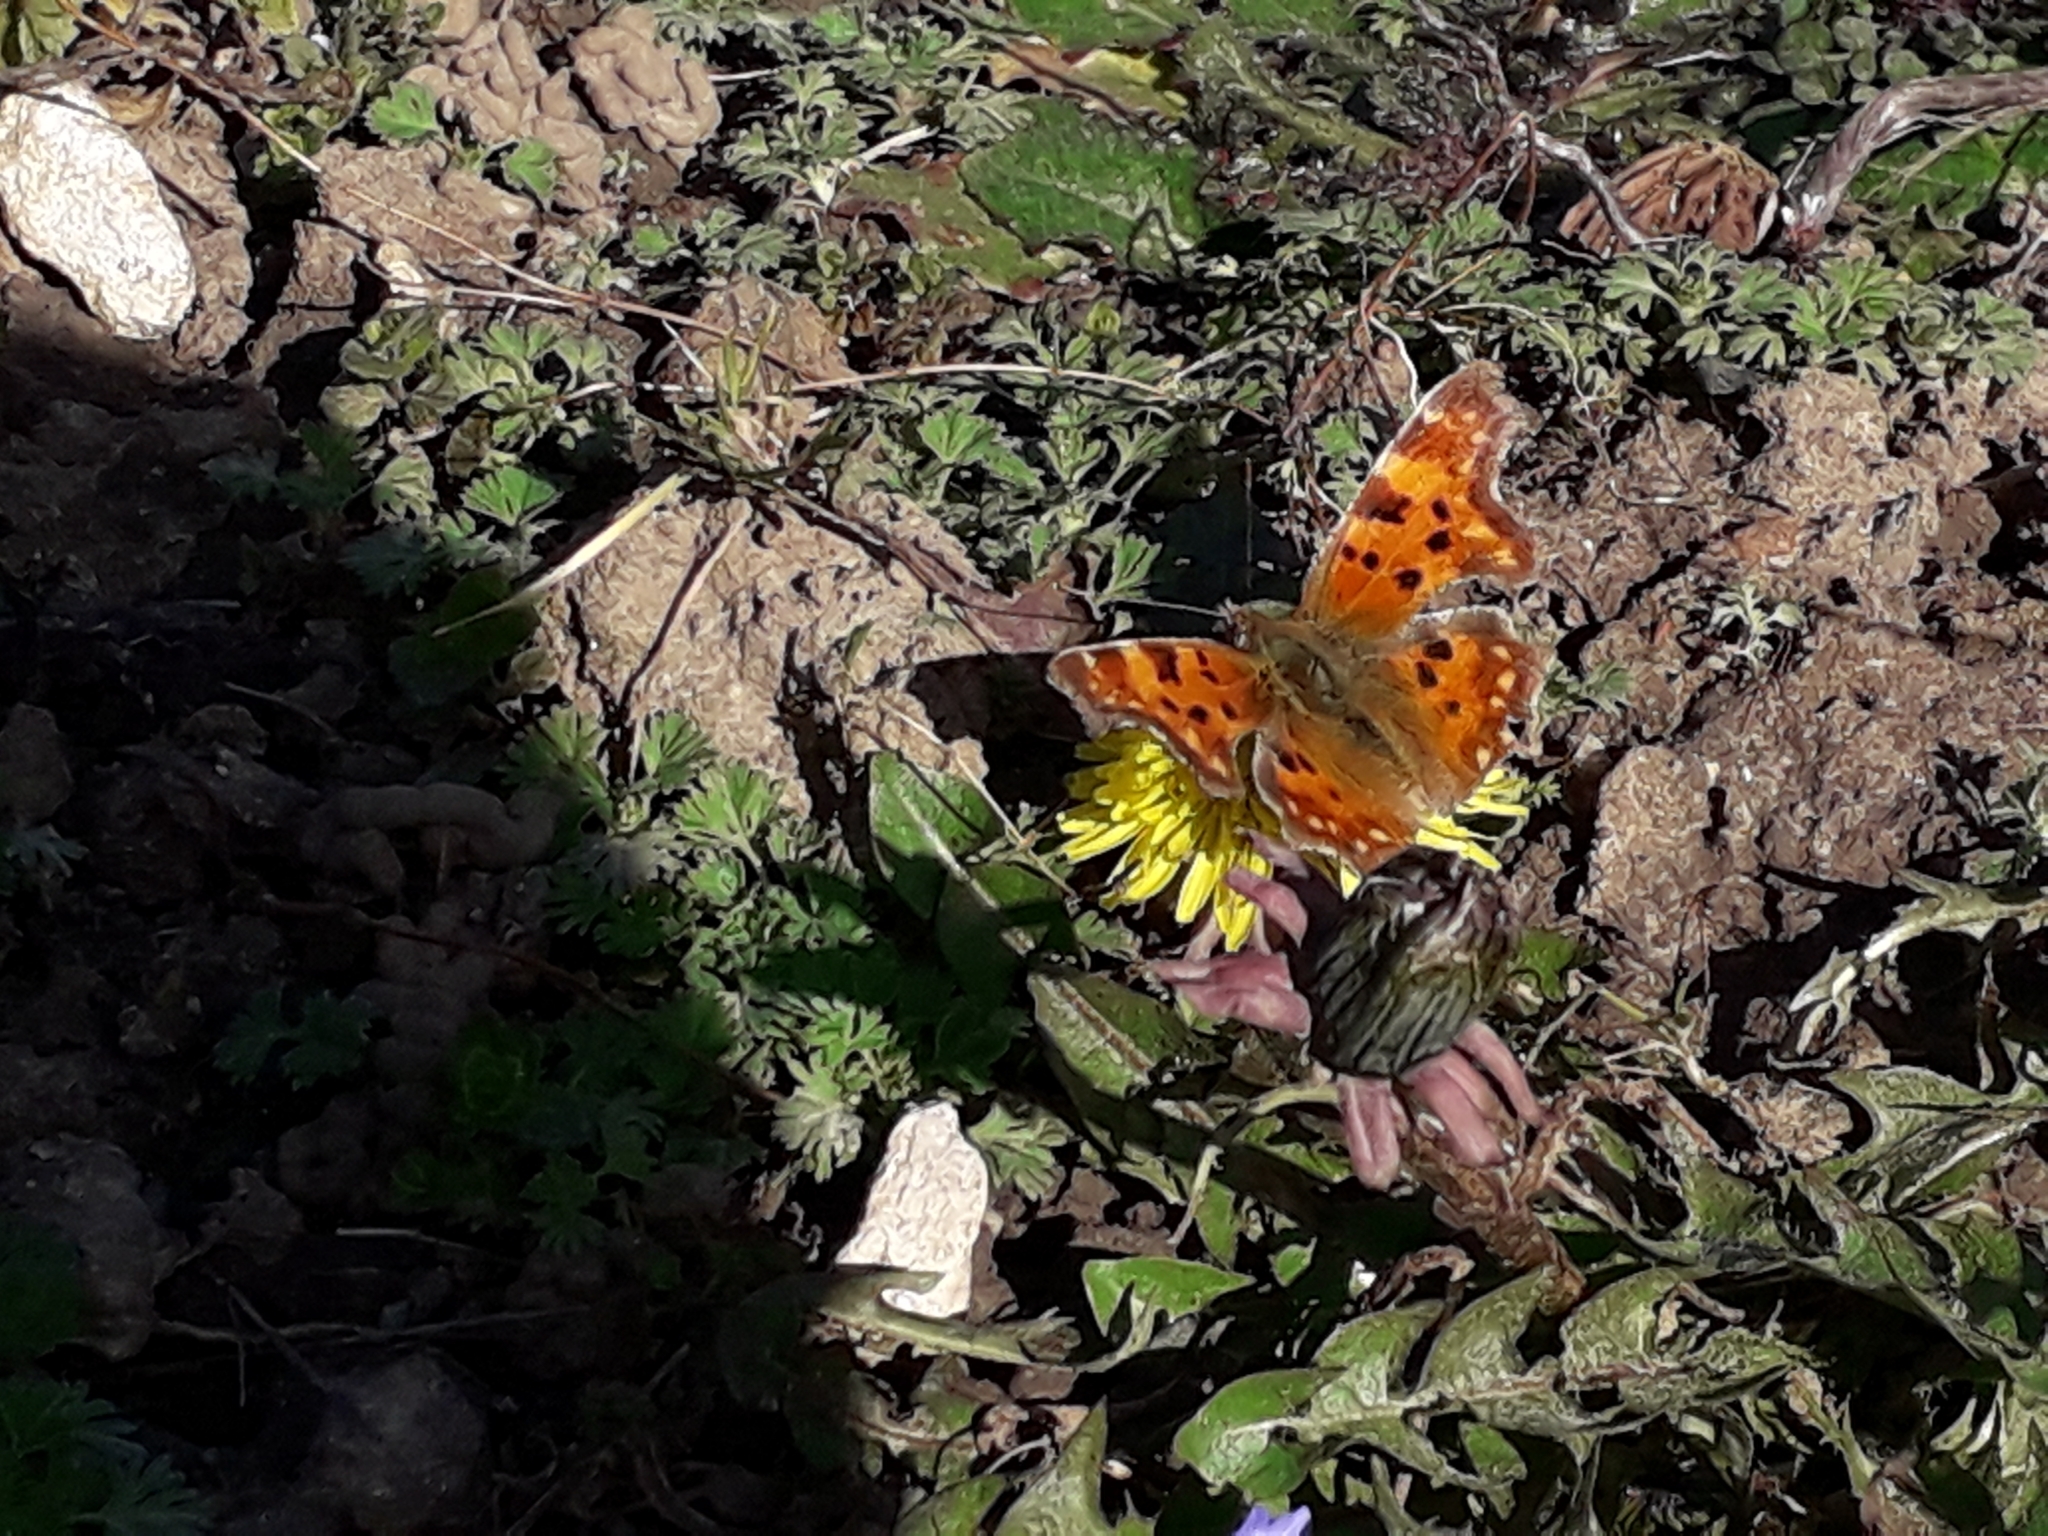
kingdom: Animalia
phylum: Arthropoda
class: Insecta
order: Lepidoptera
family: Nymphalidae
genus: Polygonia
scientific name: Polygonia c-album
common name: Comma
